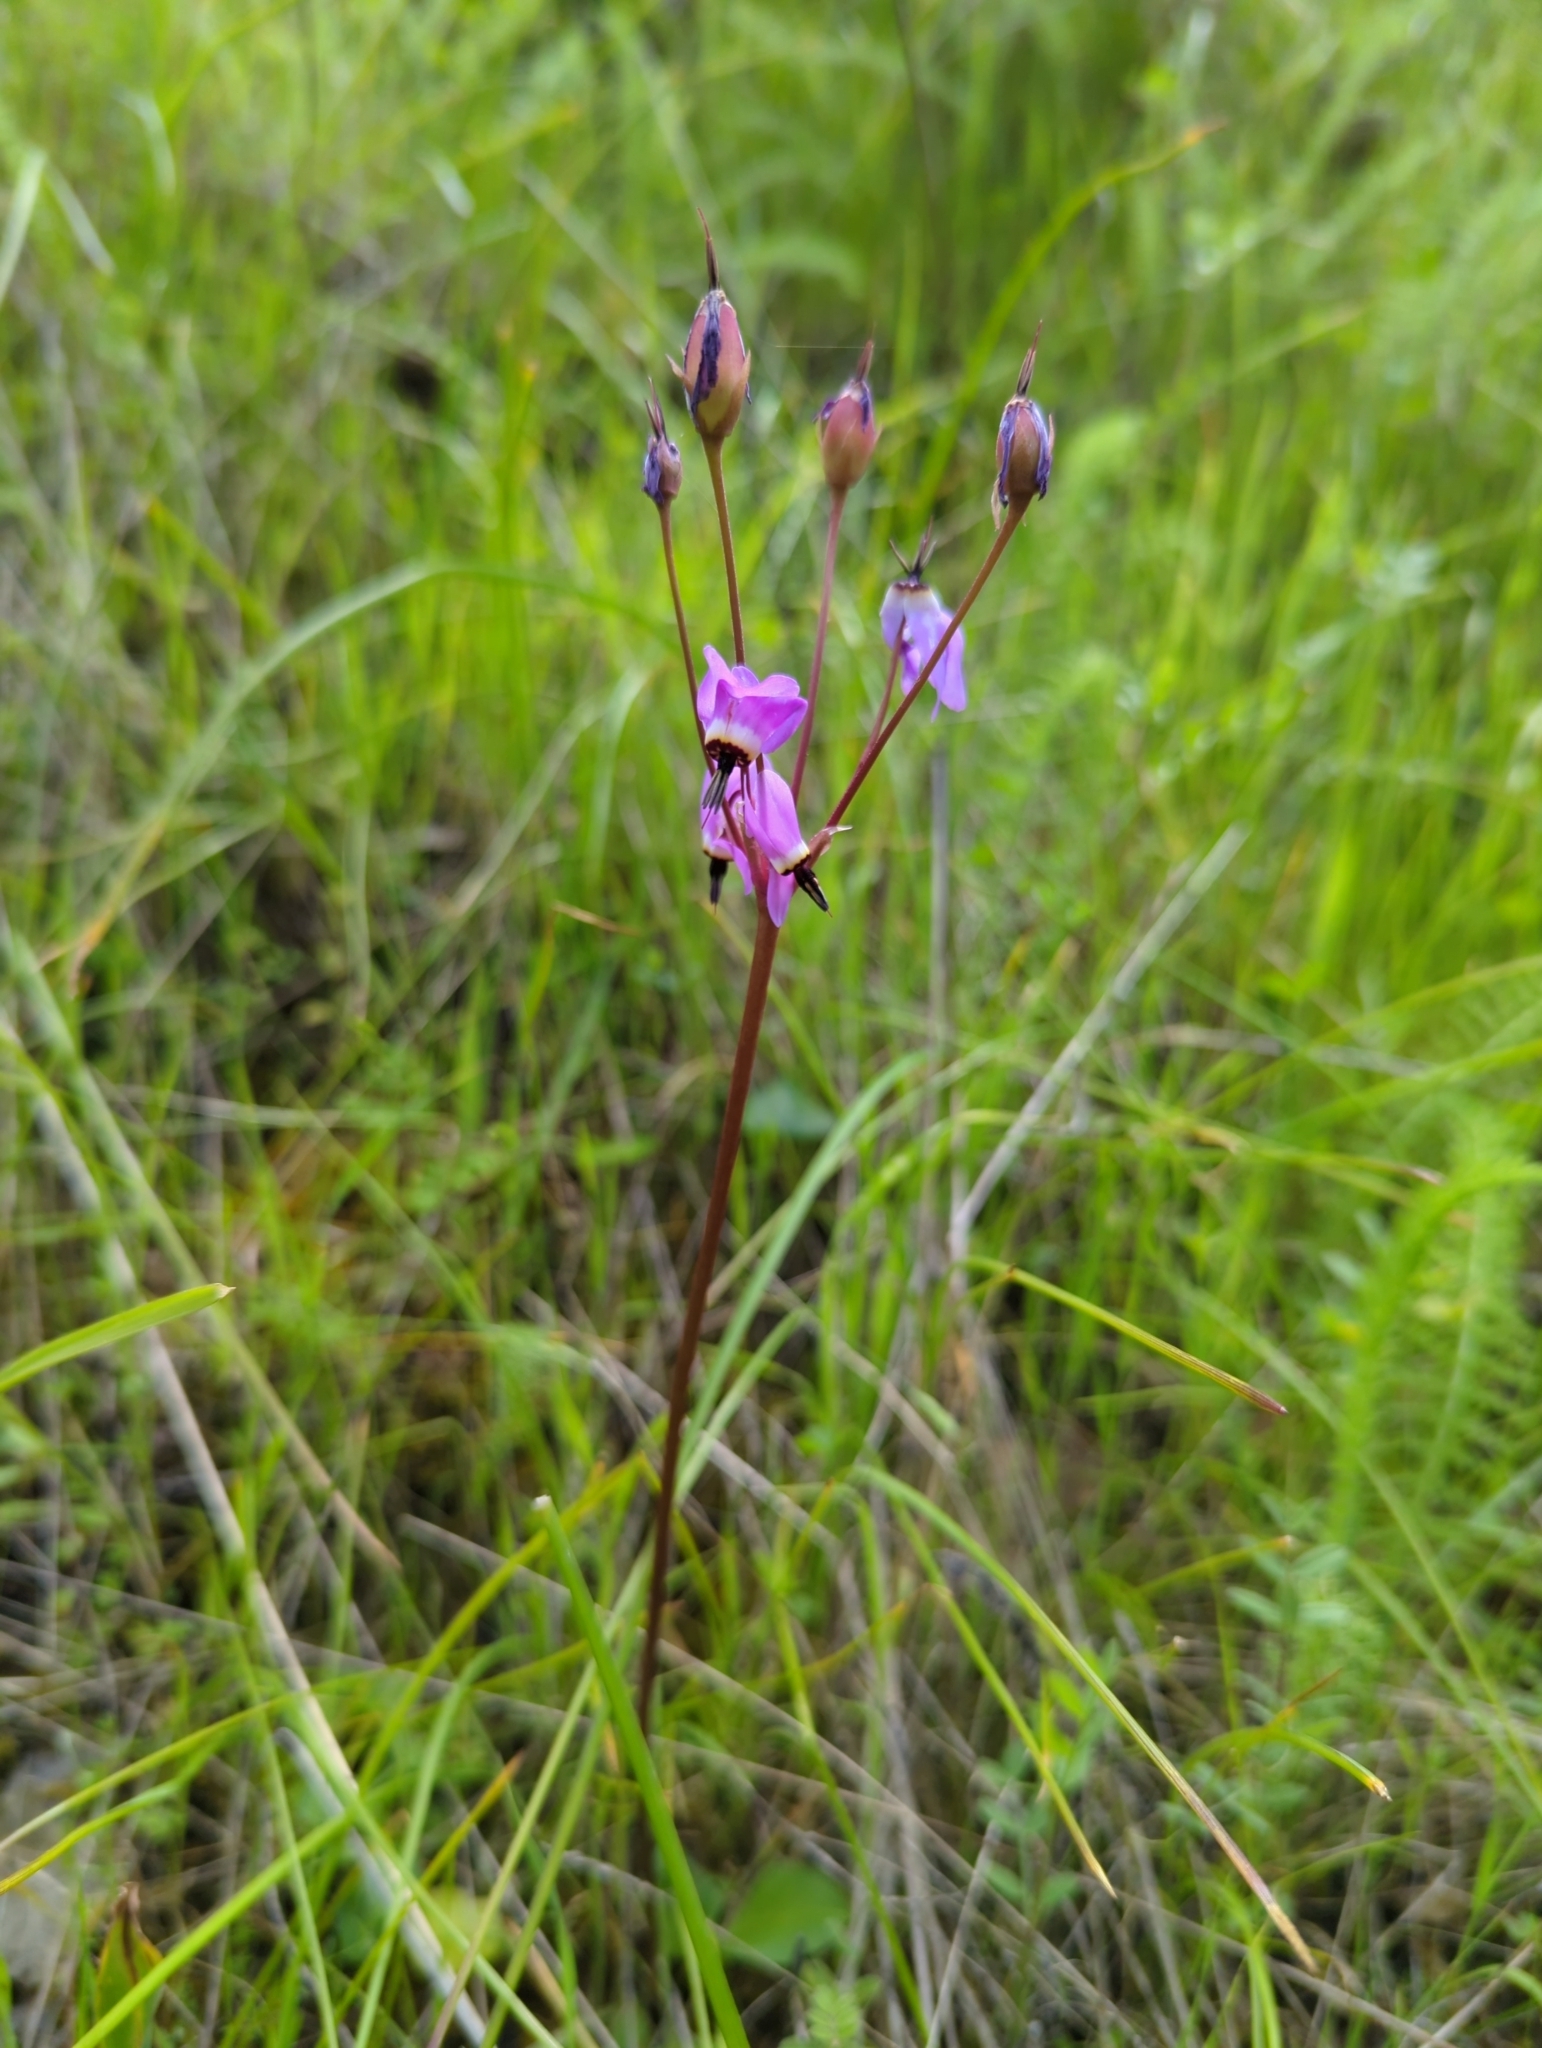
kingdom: Plantae
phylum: Tracheophyta
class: Magnoliopsida
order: Ericales
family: Primulaceae
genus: Dodecatheon
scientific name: Dodecatheon hendersonii
